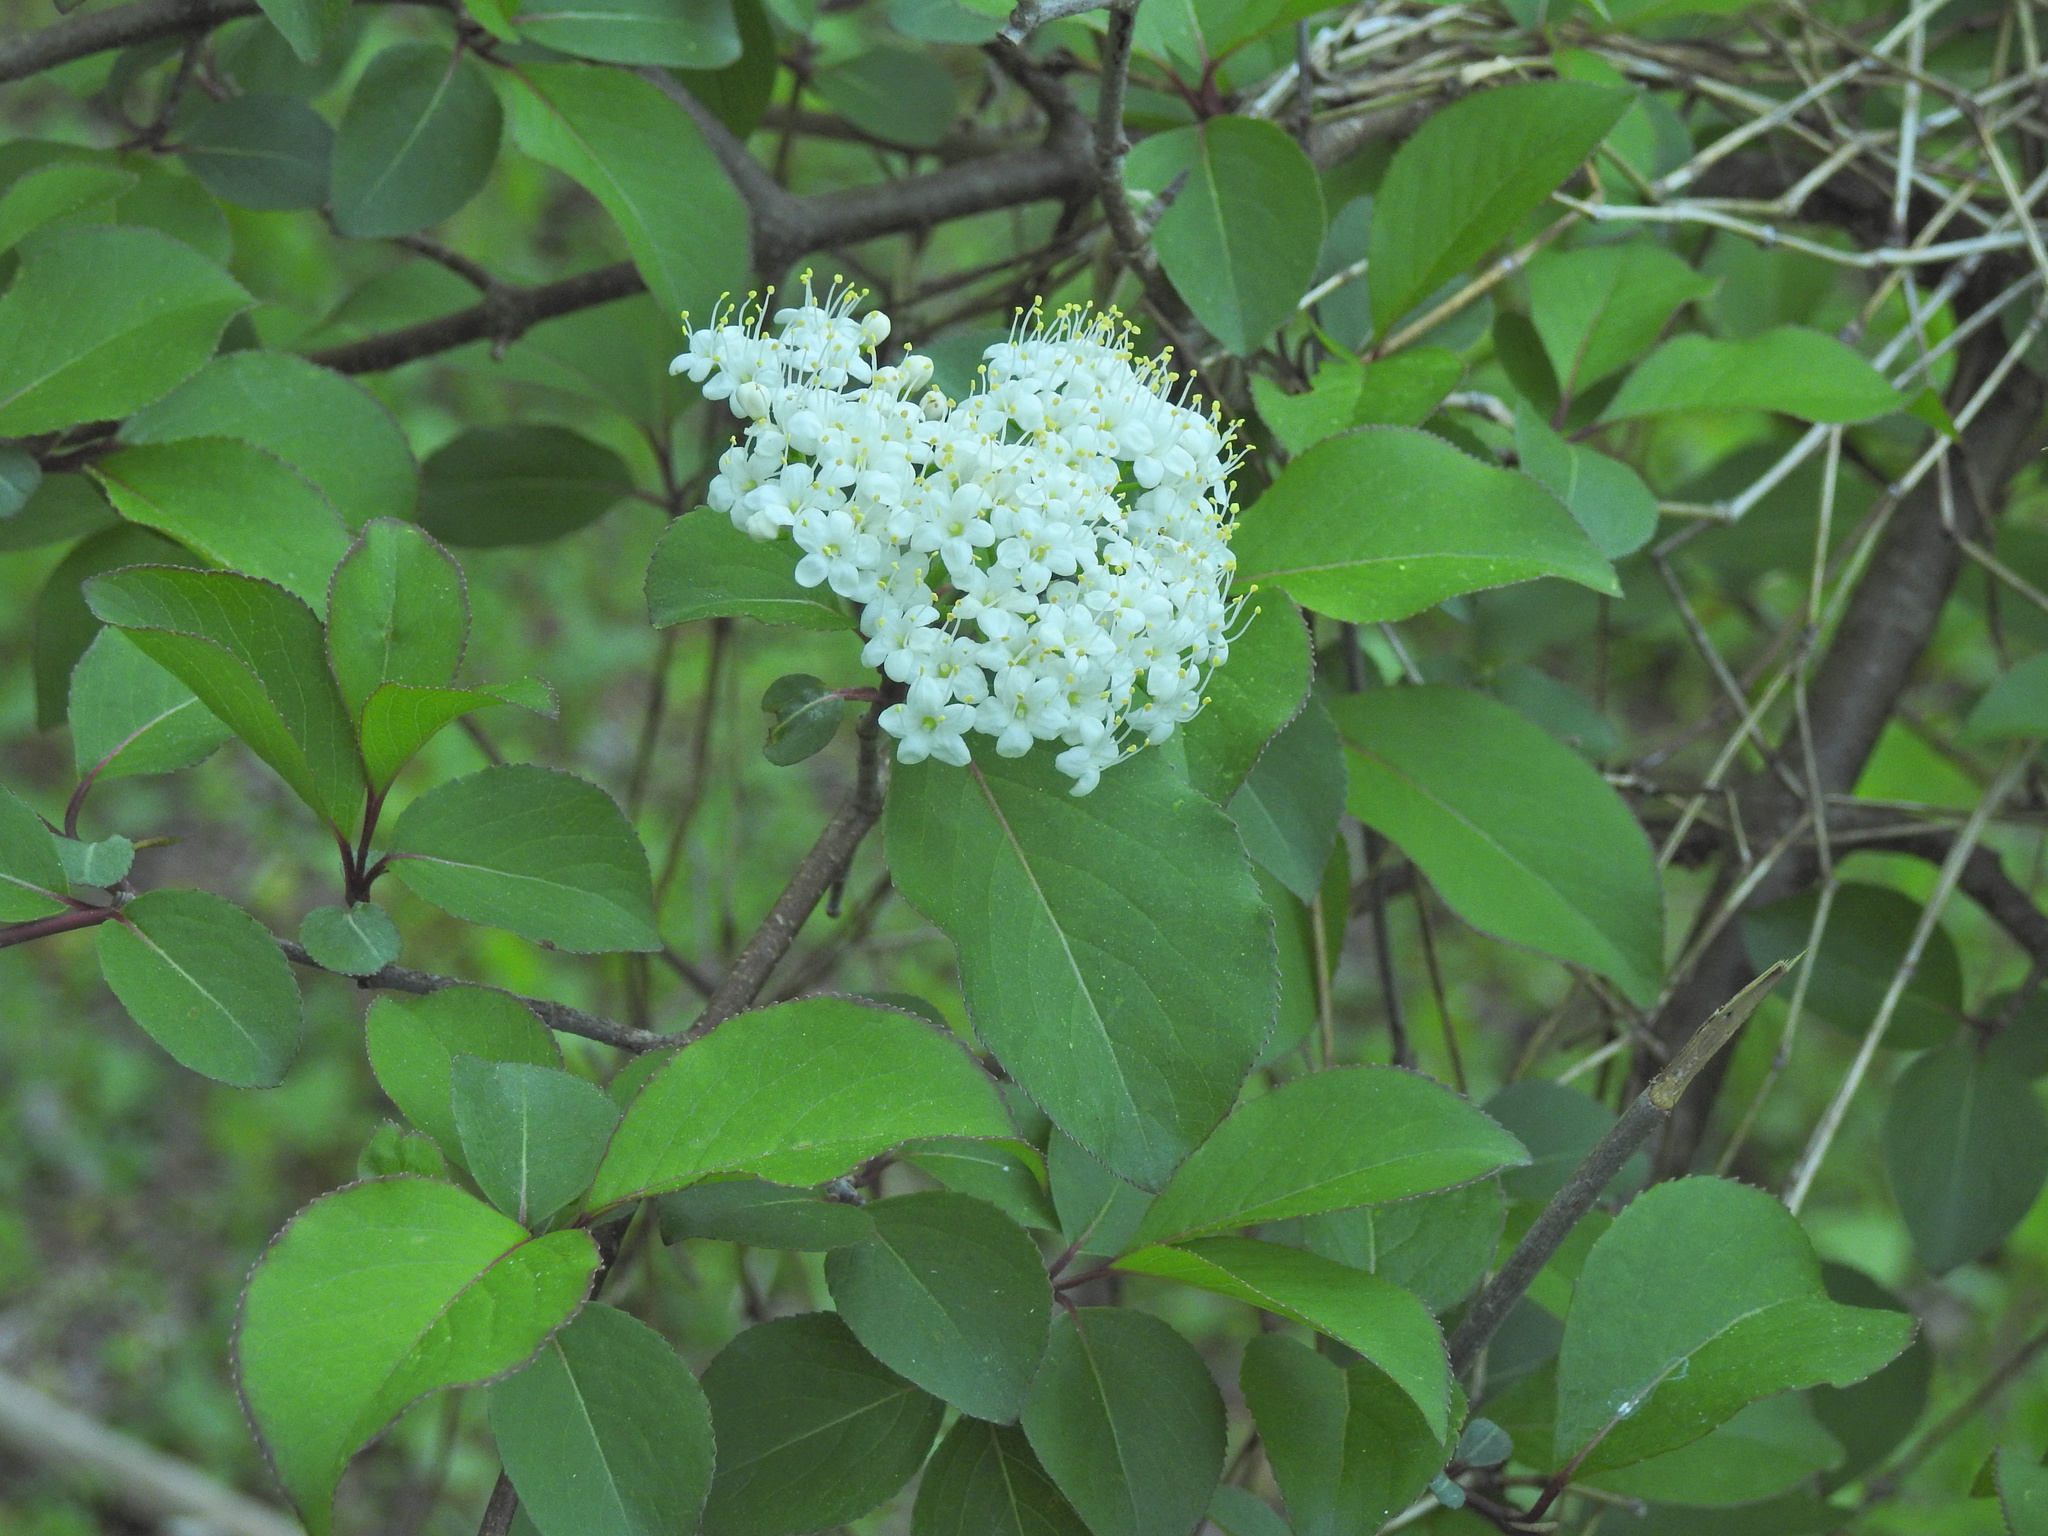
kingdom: Plantae
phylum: Tracheophyta
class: Magnoliopsida
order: Dipsacales
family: Viburnaceae
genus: Viburnum
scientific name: Viburnum prunifolium
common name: Black haw
